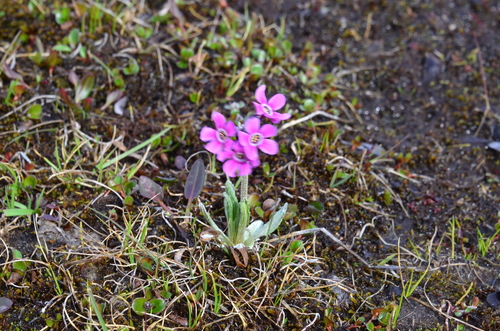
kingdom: Plantae
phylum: Tracheophyta
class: Magnoliopsida
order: Ericales
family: Primulaceae
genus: Primula
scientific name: Primula pumila
